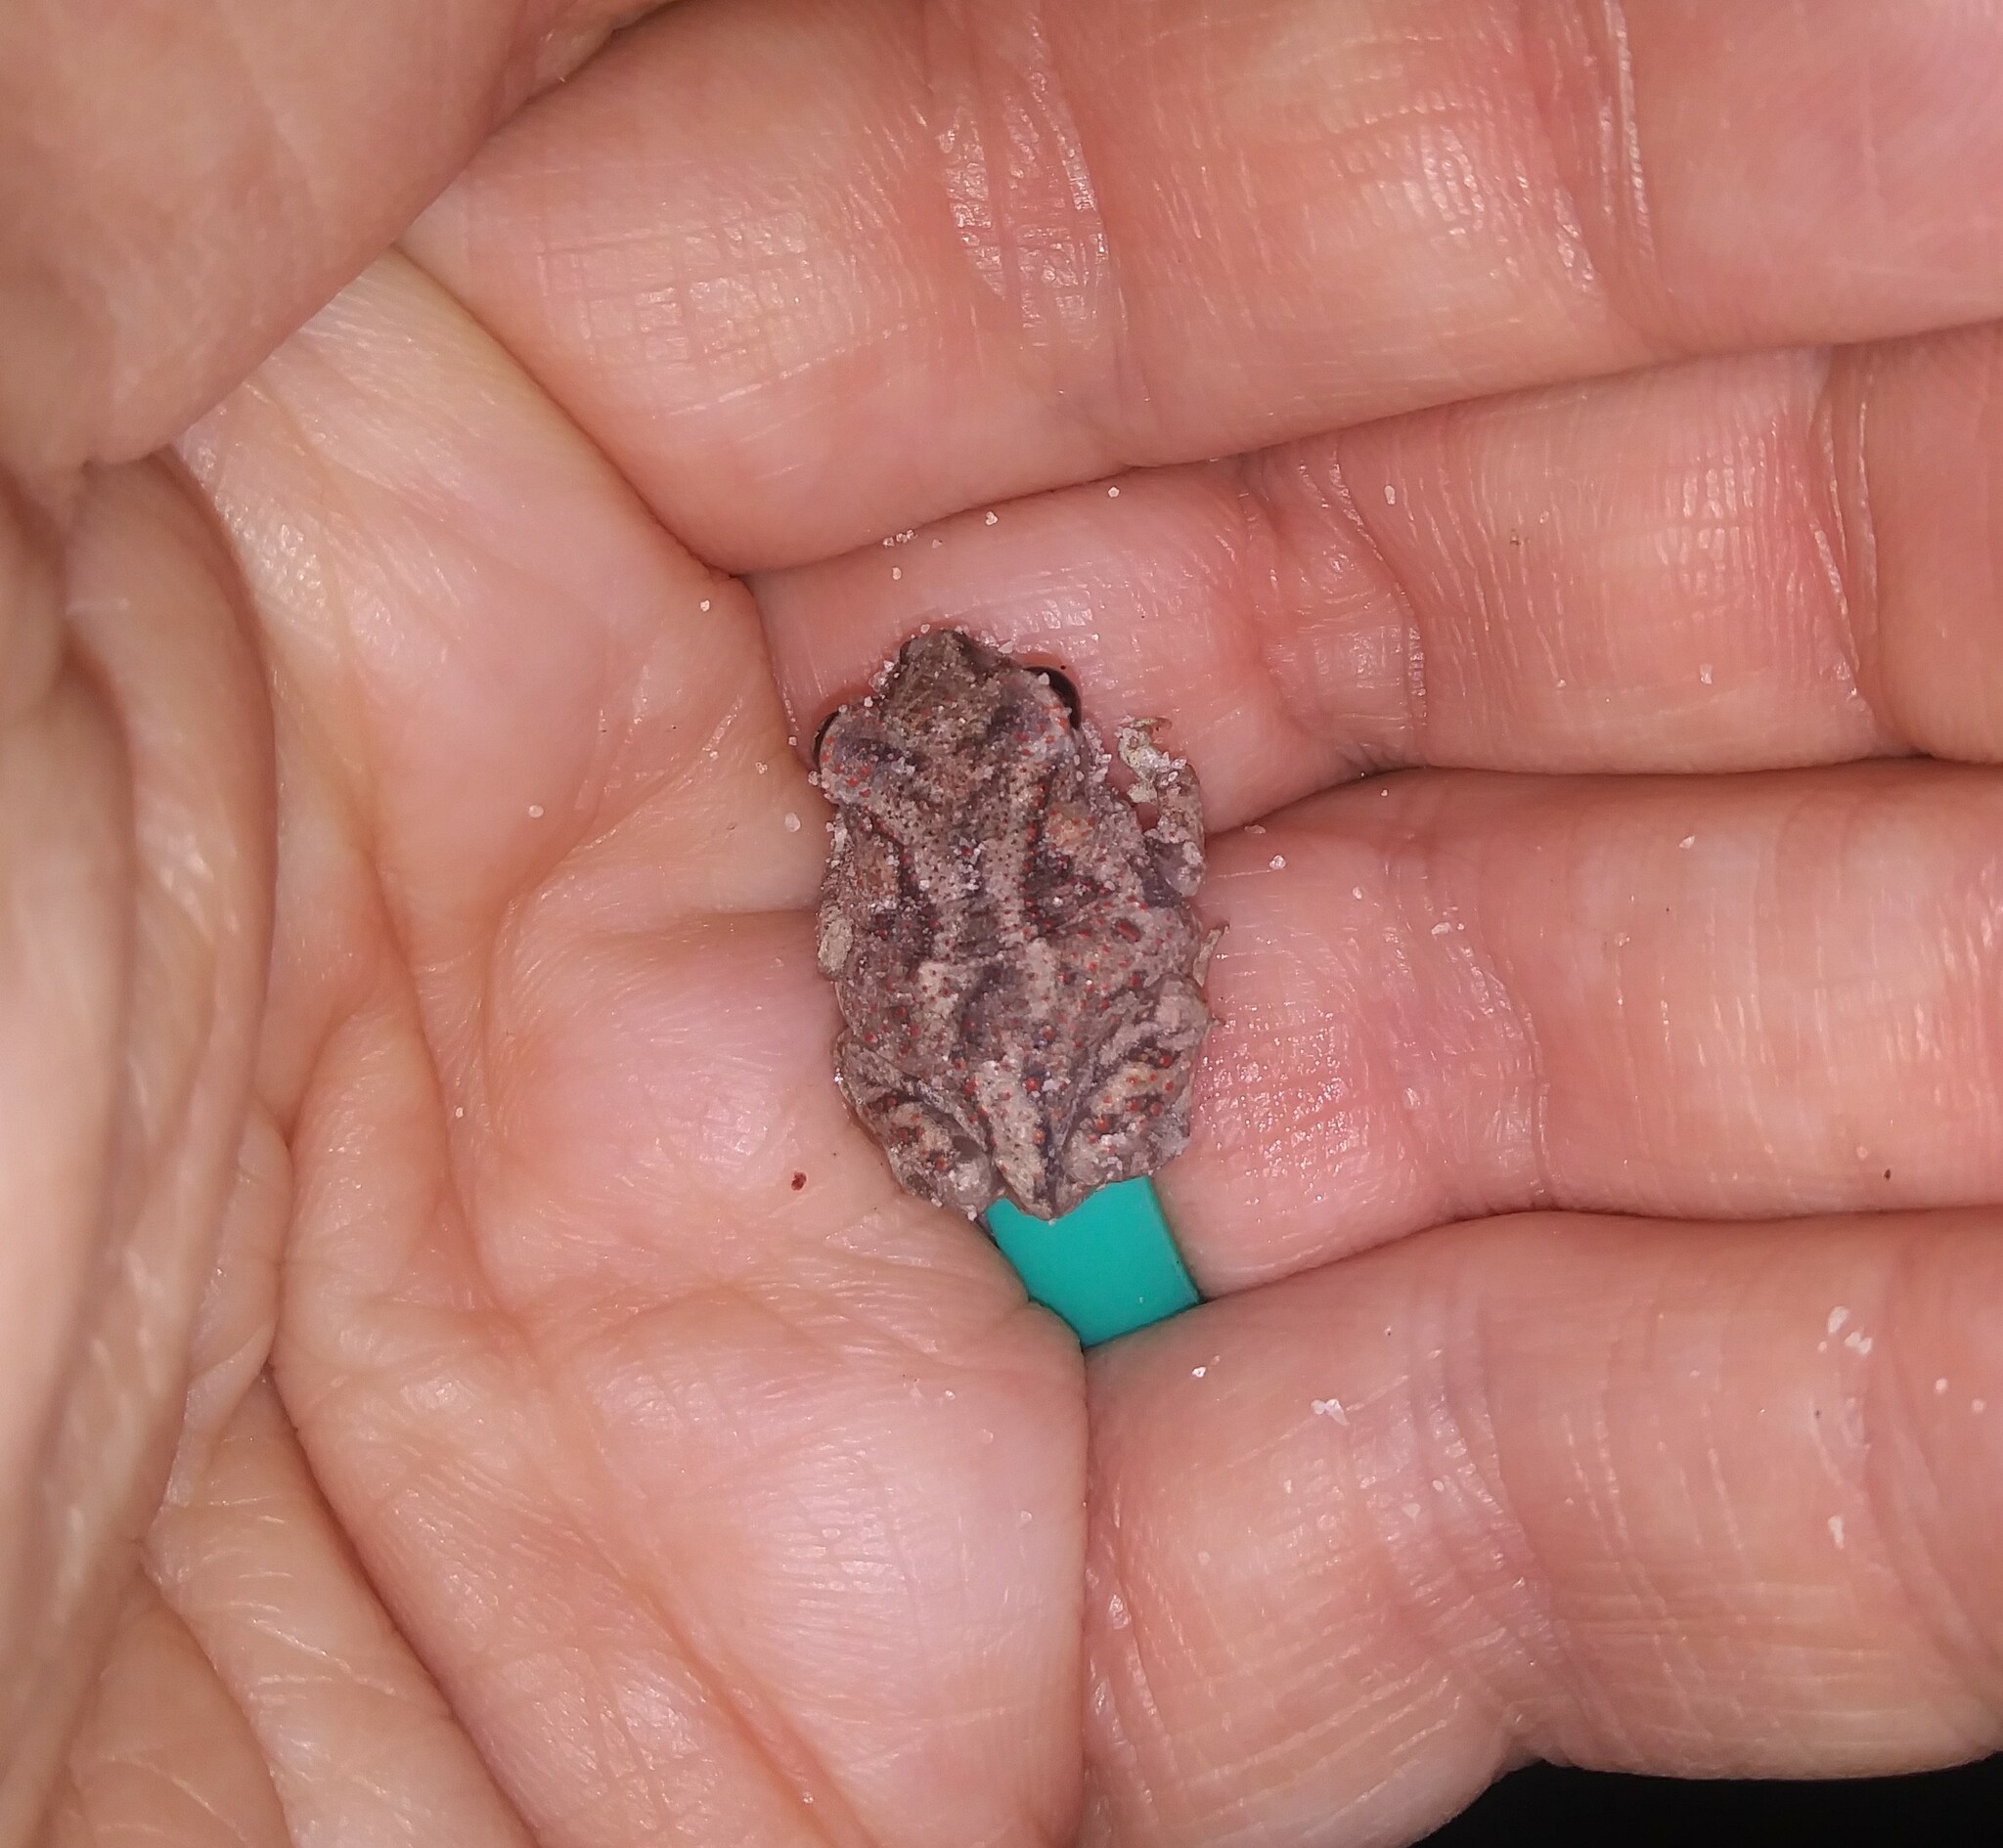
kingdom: Animalia
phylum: Chordata
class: Amphibia
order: Anura
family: Scaphiopodidae
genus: Scaphiopus
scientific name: Scaphiopus holbrookii
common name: Eastern spadefoot toad
